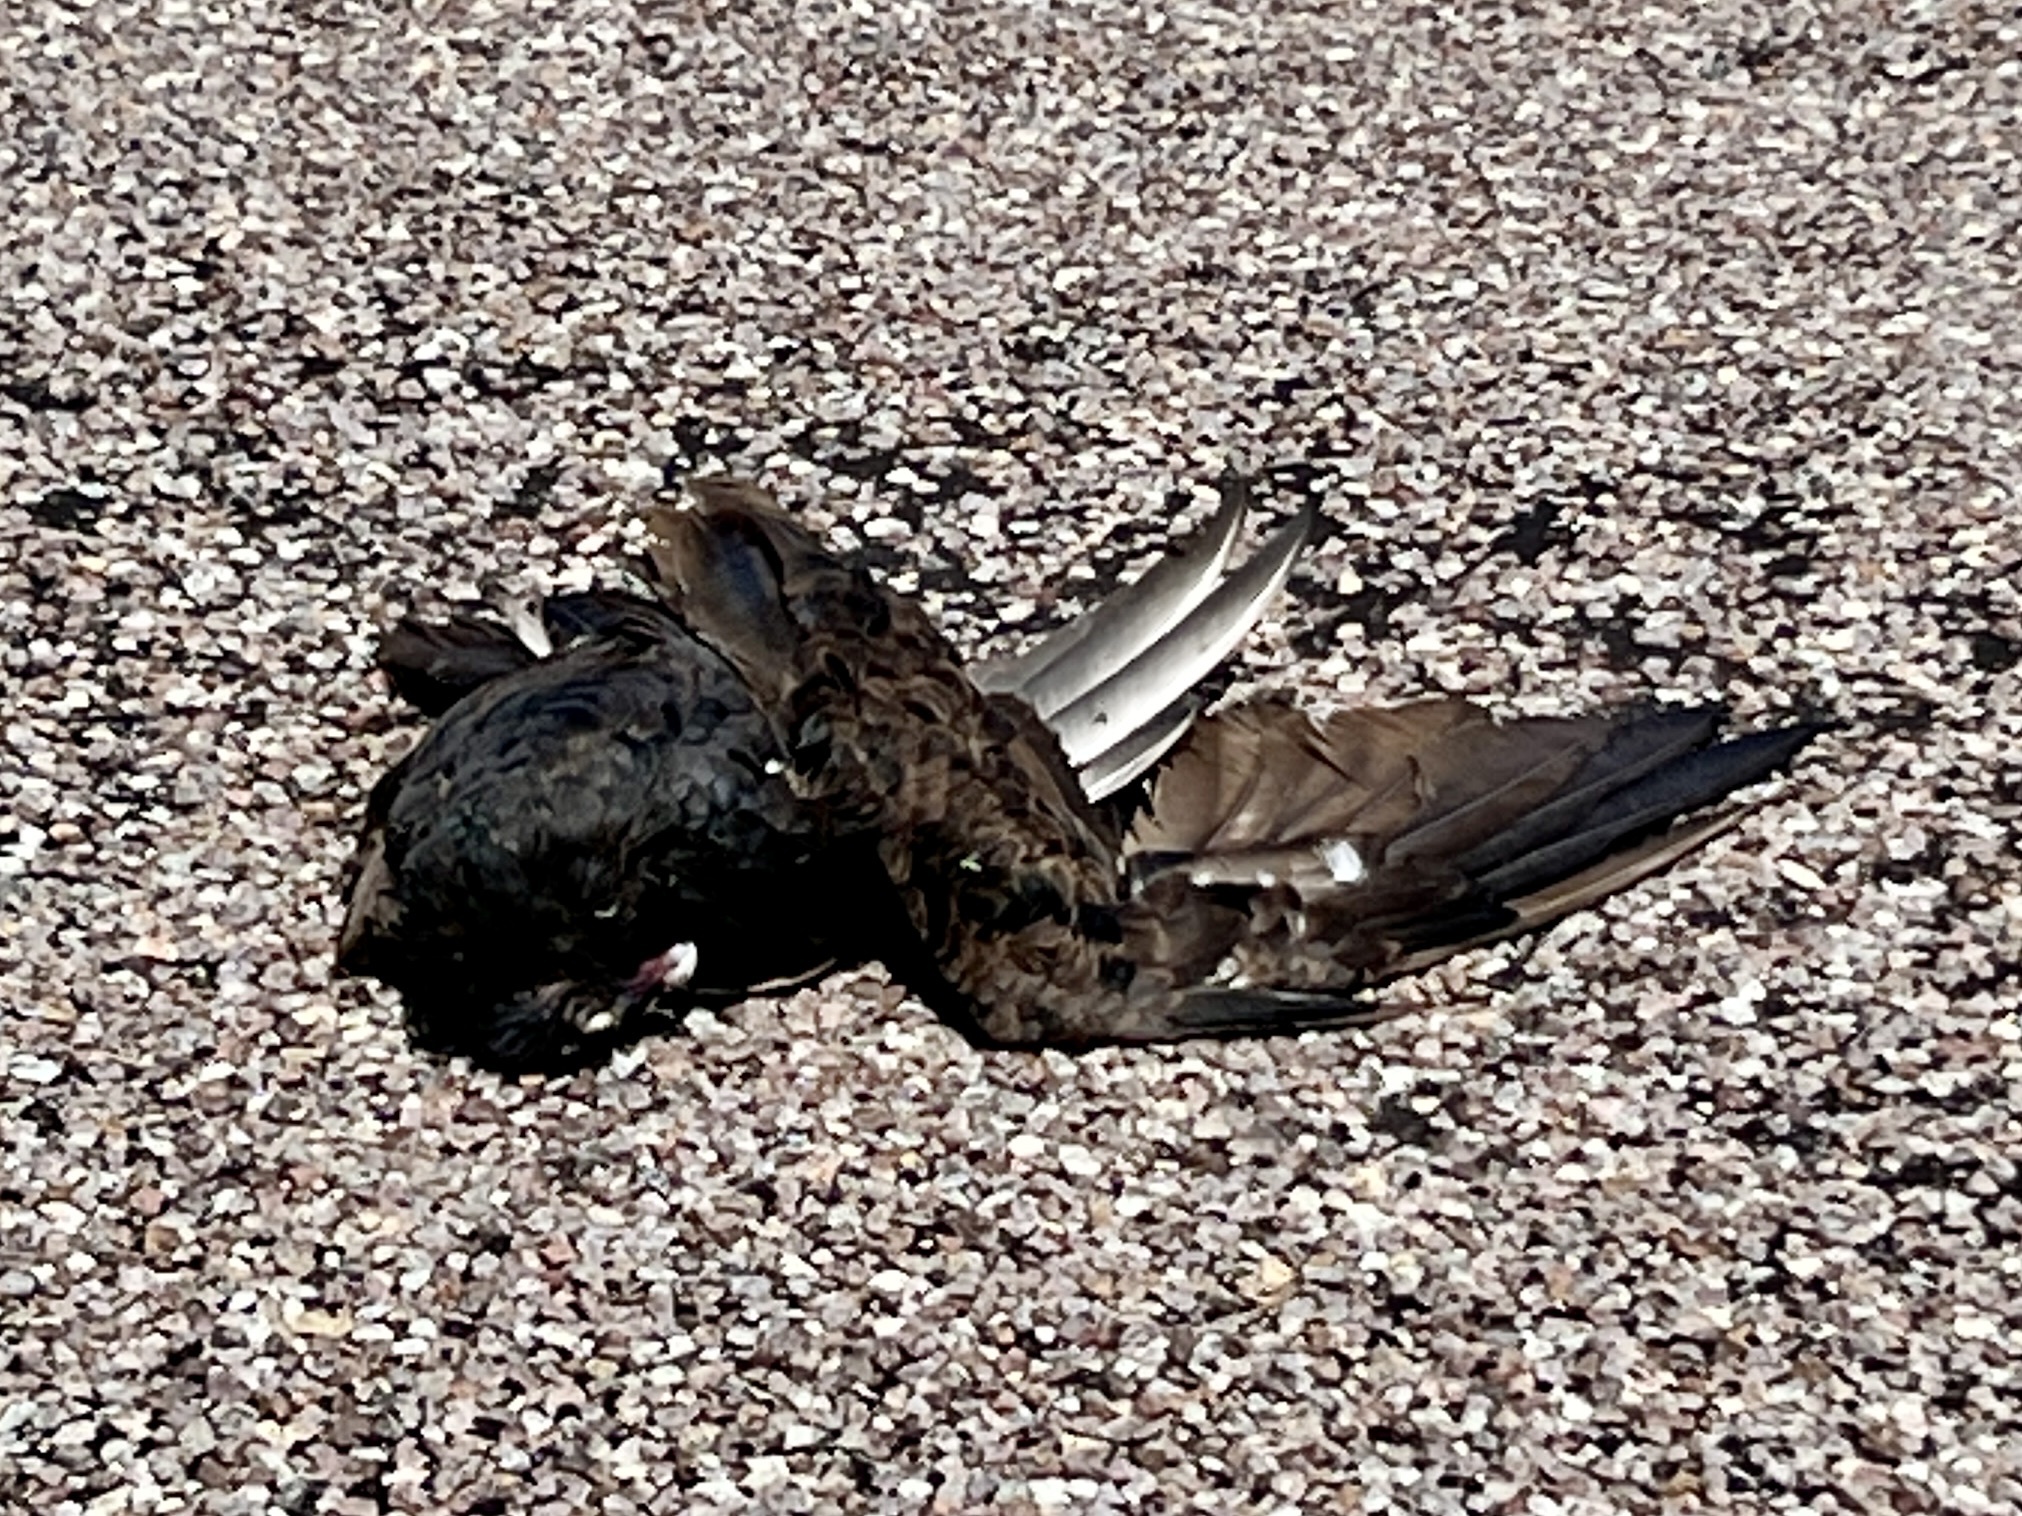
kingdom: Animalia
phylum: Chordata
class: Aves
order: Accipitriformes
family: Cathartidae
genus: Cathartes
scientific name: Cathartes aura
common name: Turkey vulture
